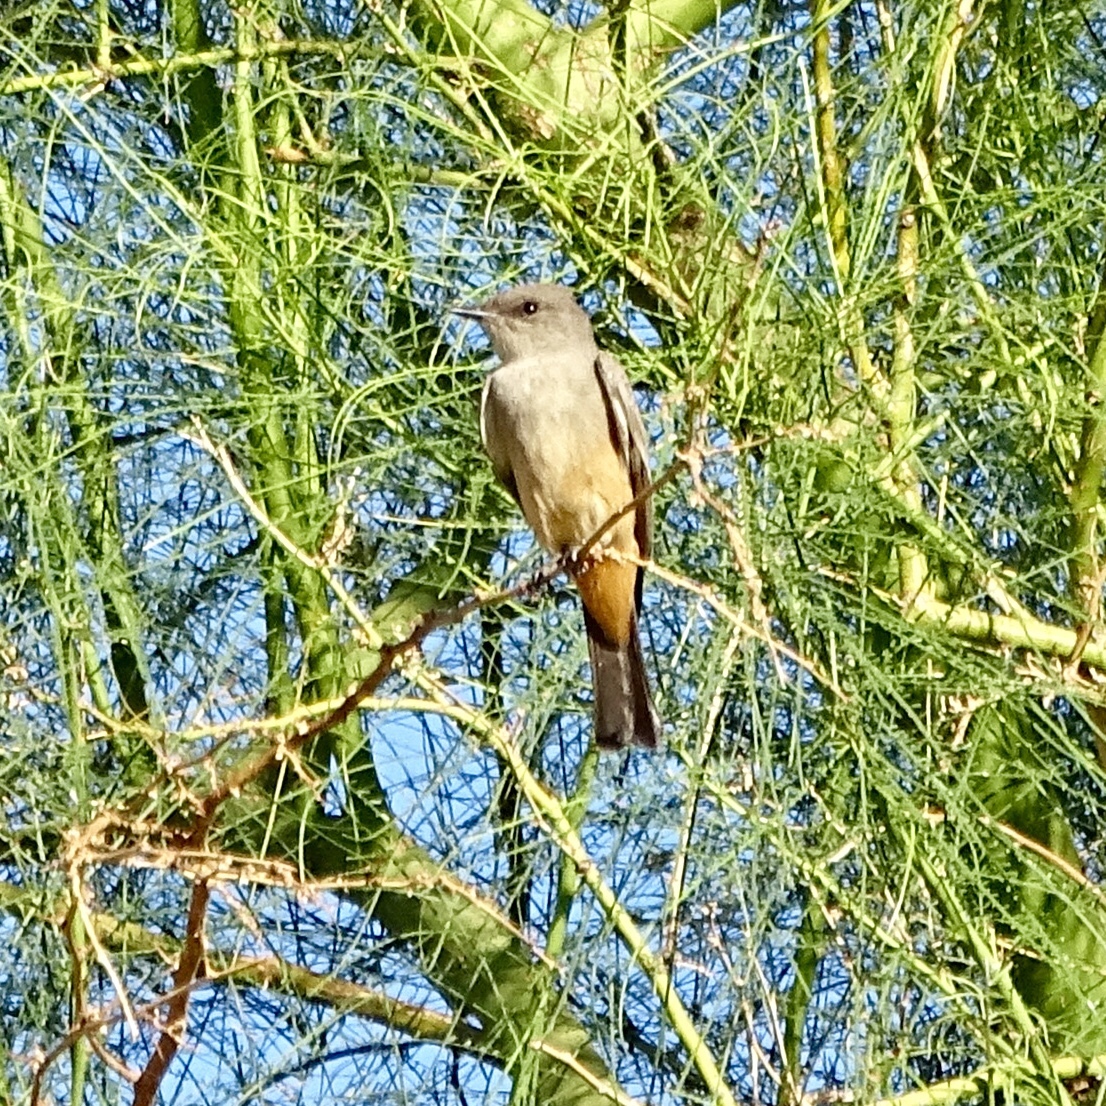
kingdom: Animalia
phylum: Chordata
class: Aves
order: Passeriformes
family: Tyrannidae
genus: Sayornis
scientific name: Sayornis saya
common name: Say's phoebe
